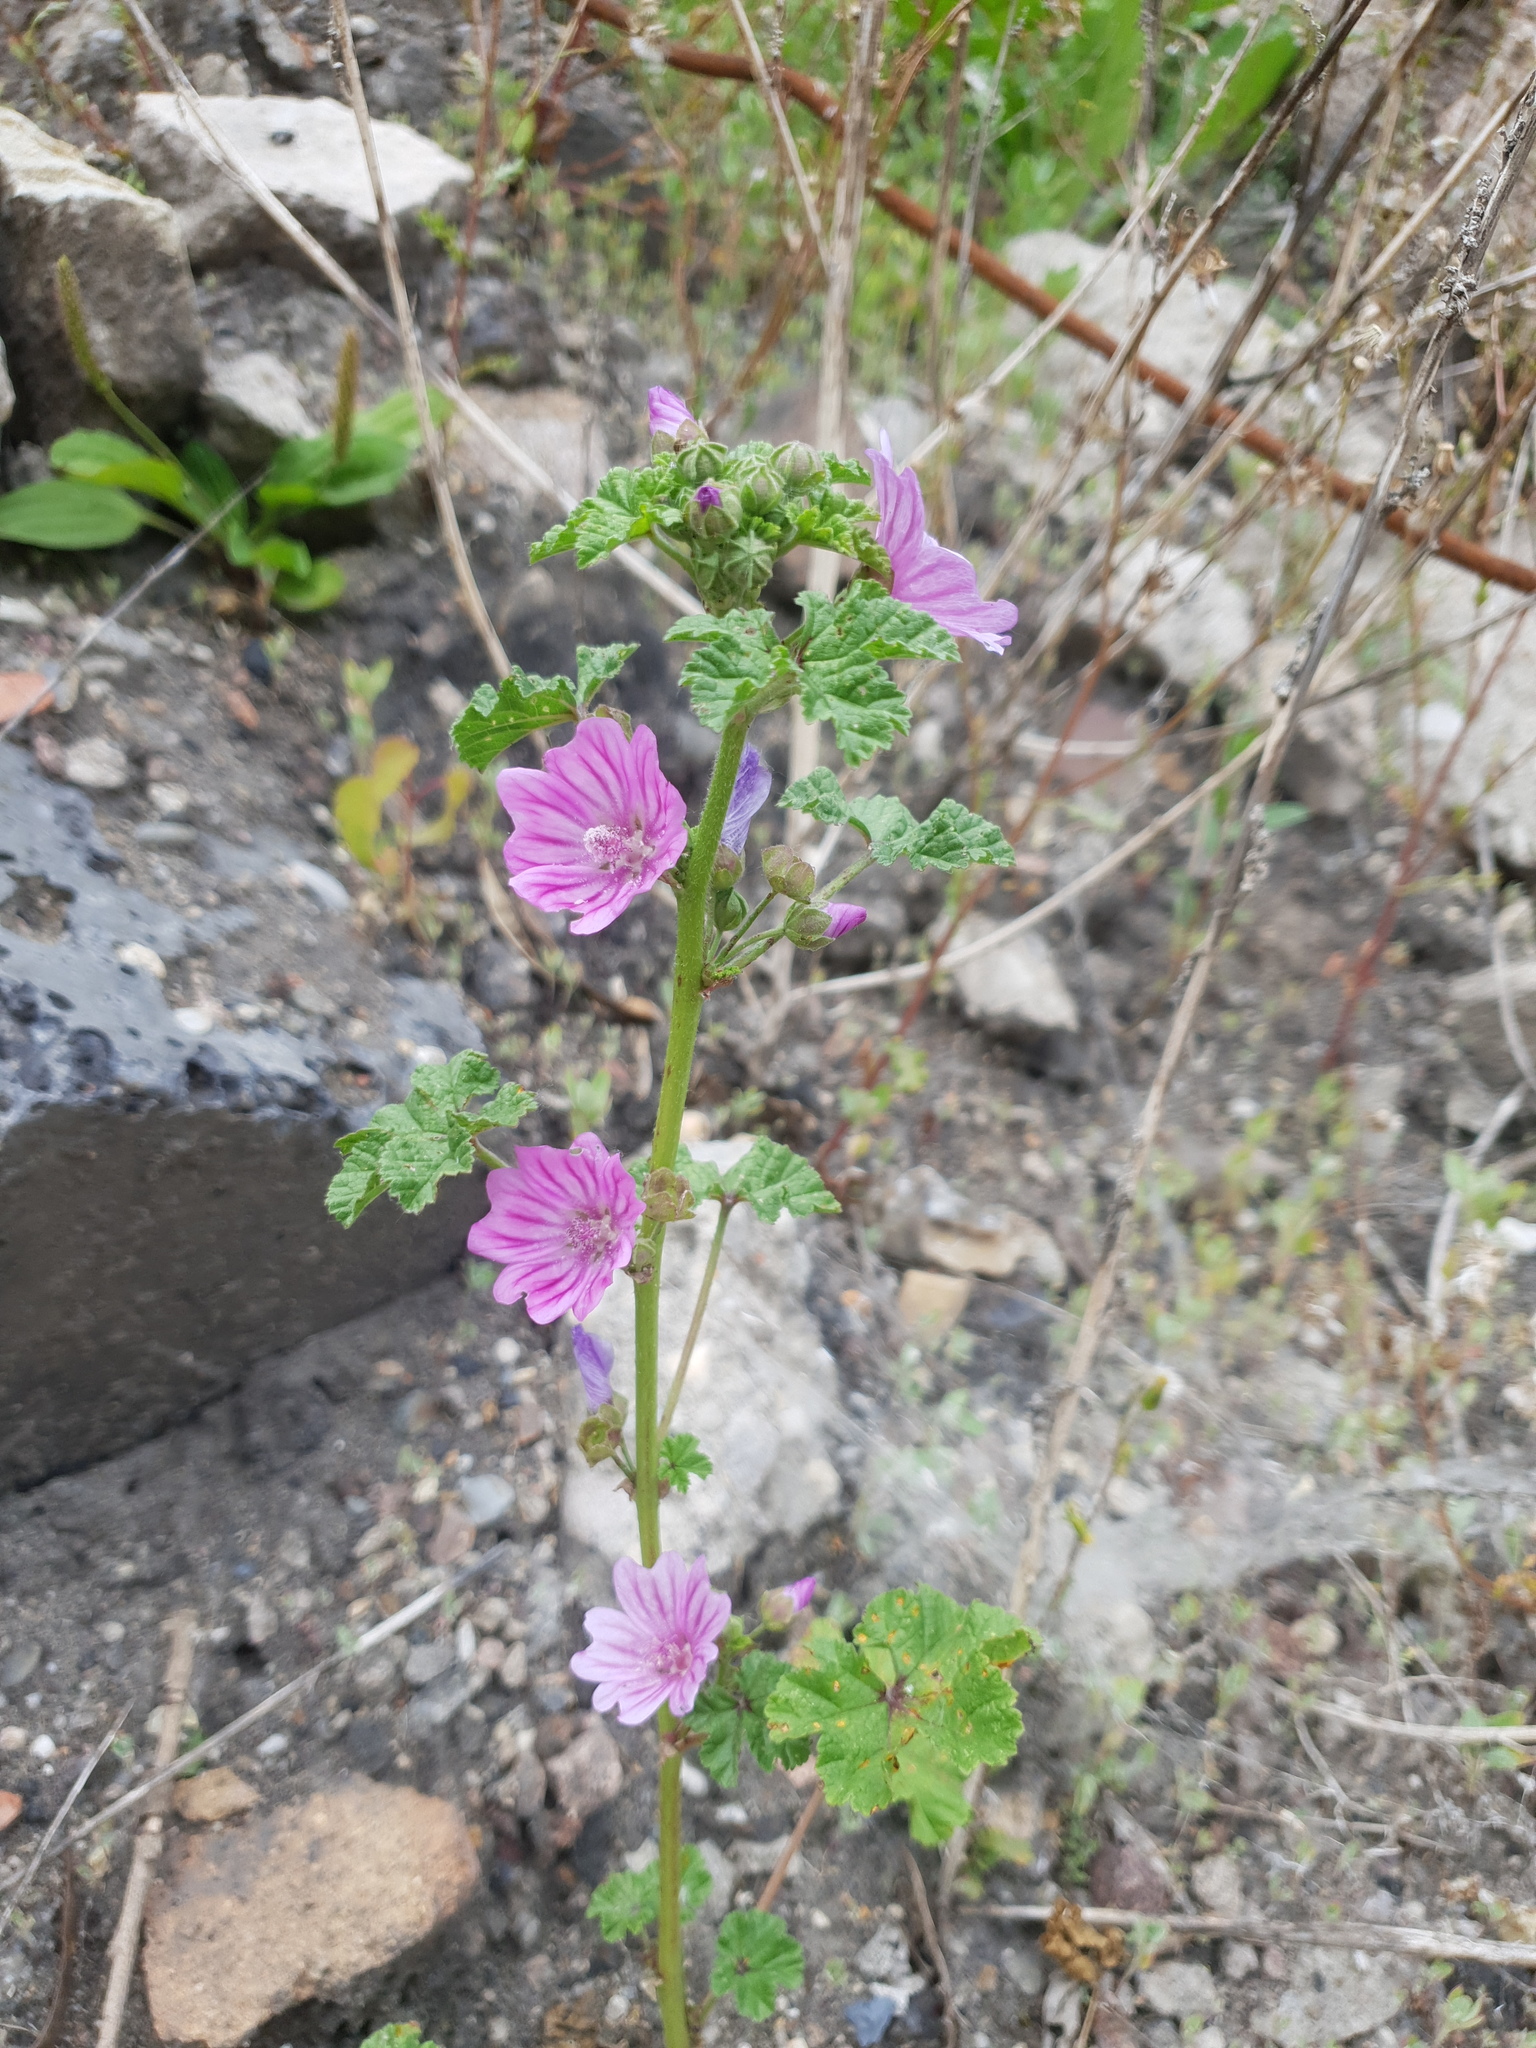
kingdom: Plantae
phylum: Tracheophyta
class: Magnoliopsida
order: Malvales
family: Malvaceae
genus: Malva
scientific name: Malva sylvestris
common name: Common mallow
